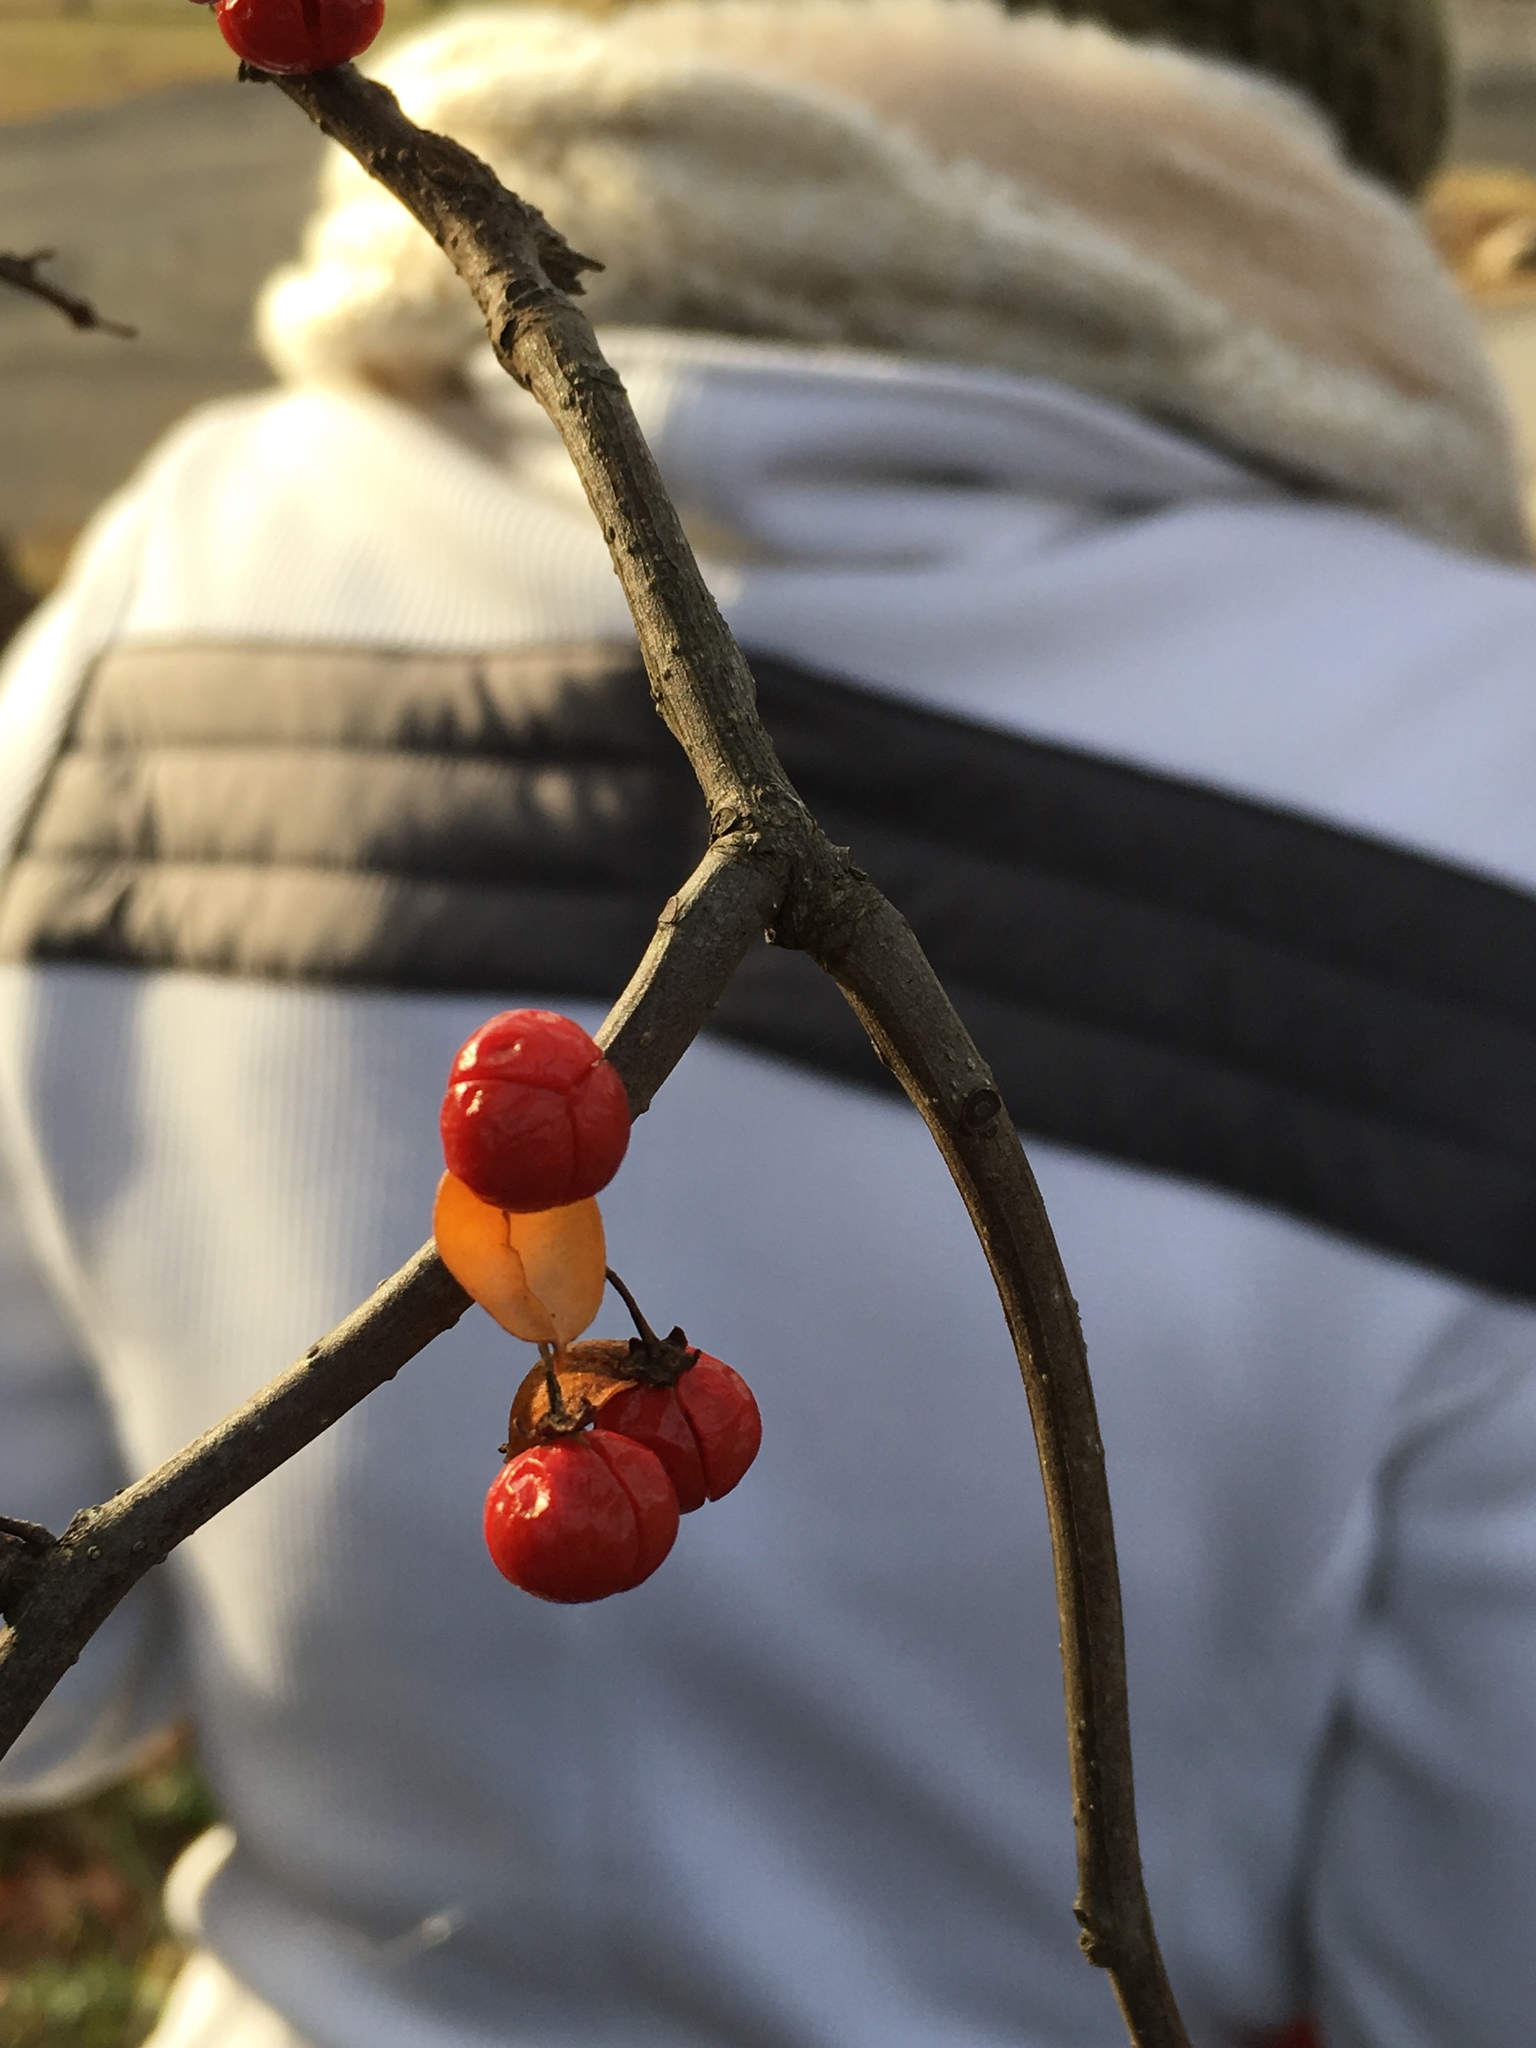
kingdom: Plantae
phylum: Tracheophyta
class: Magnoliopsida
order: Celastrales
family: Celastraceae
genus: Celastrus
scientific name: Celastrus orbiculatus
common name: Oriental bittersweet
